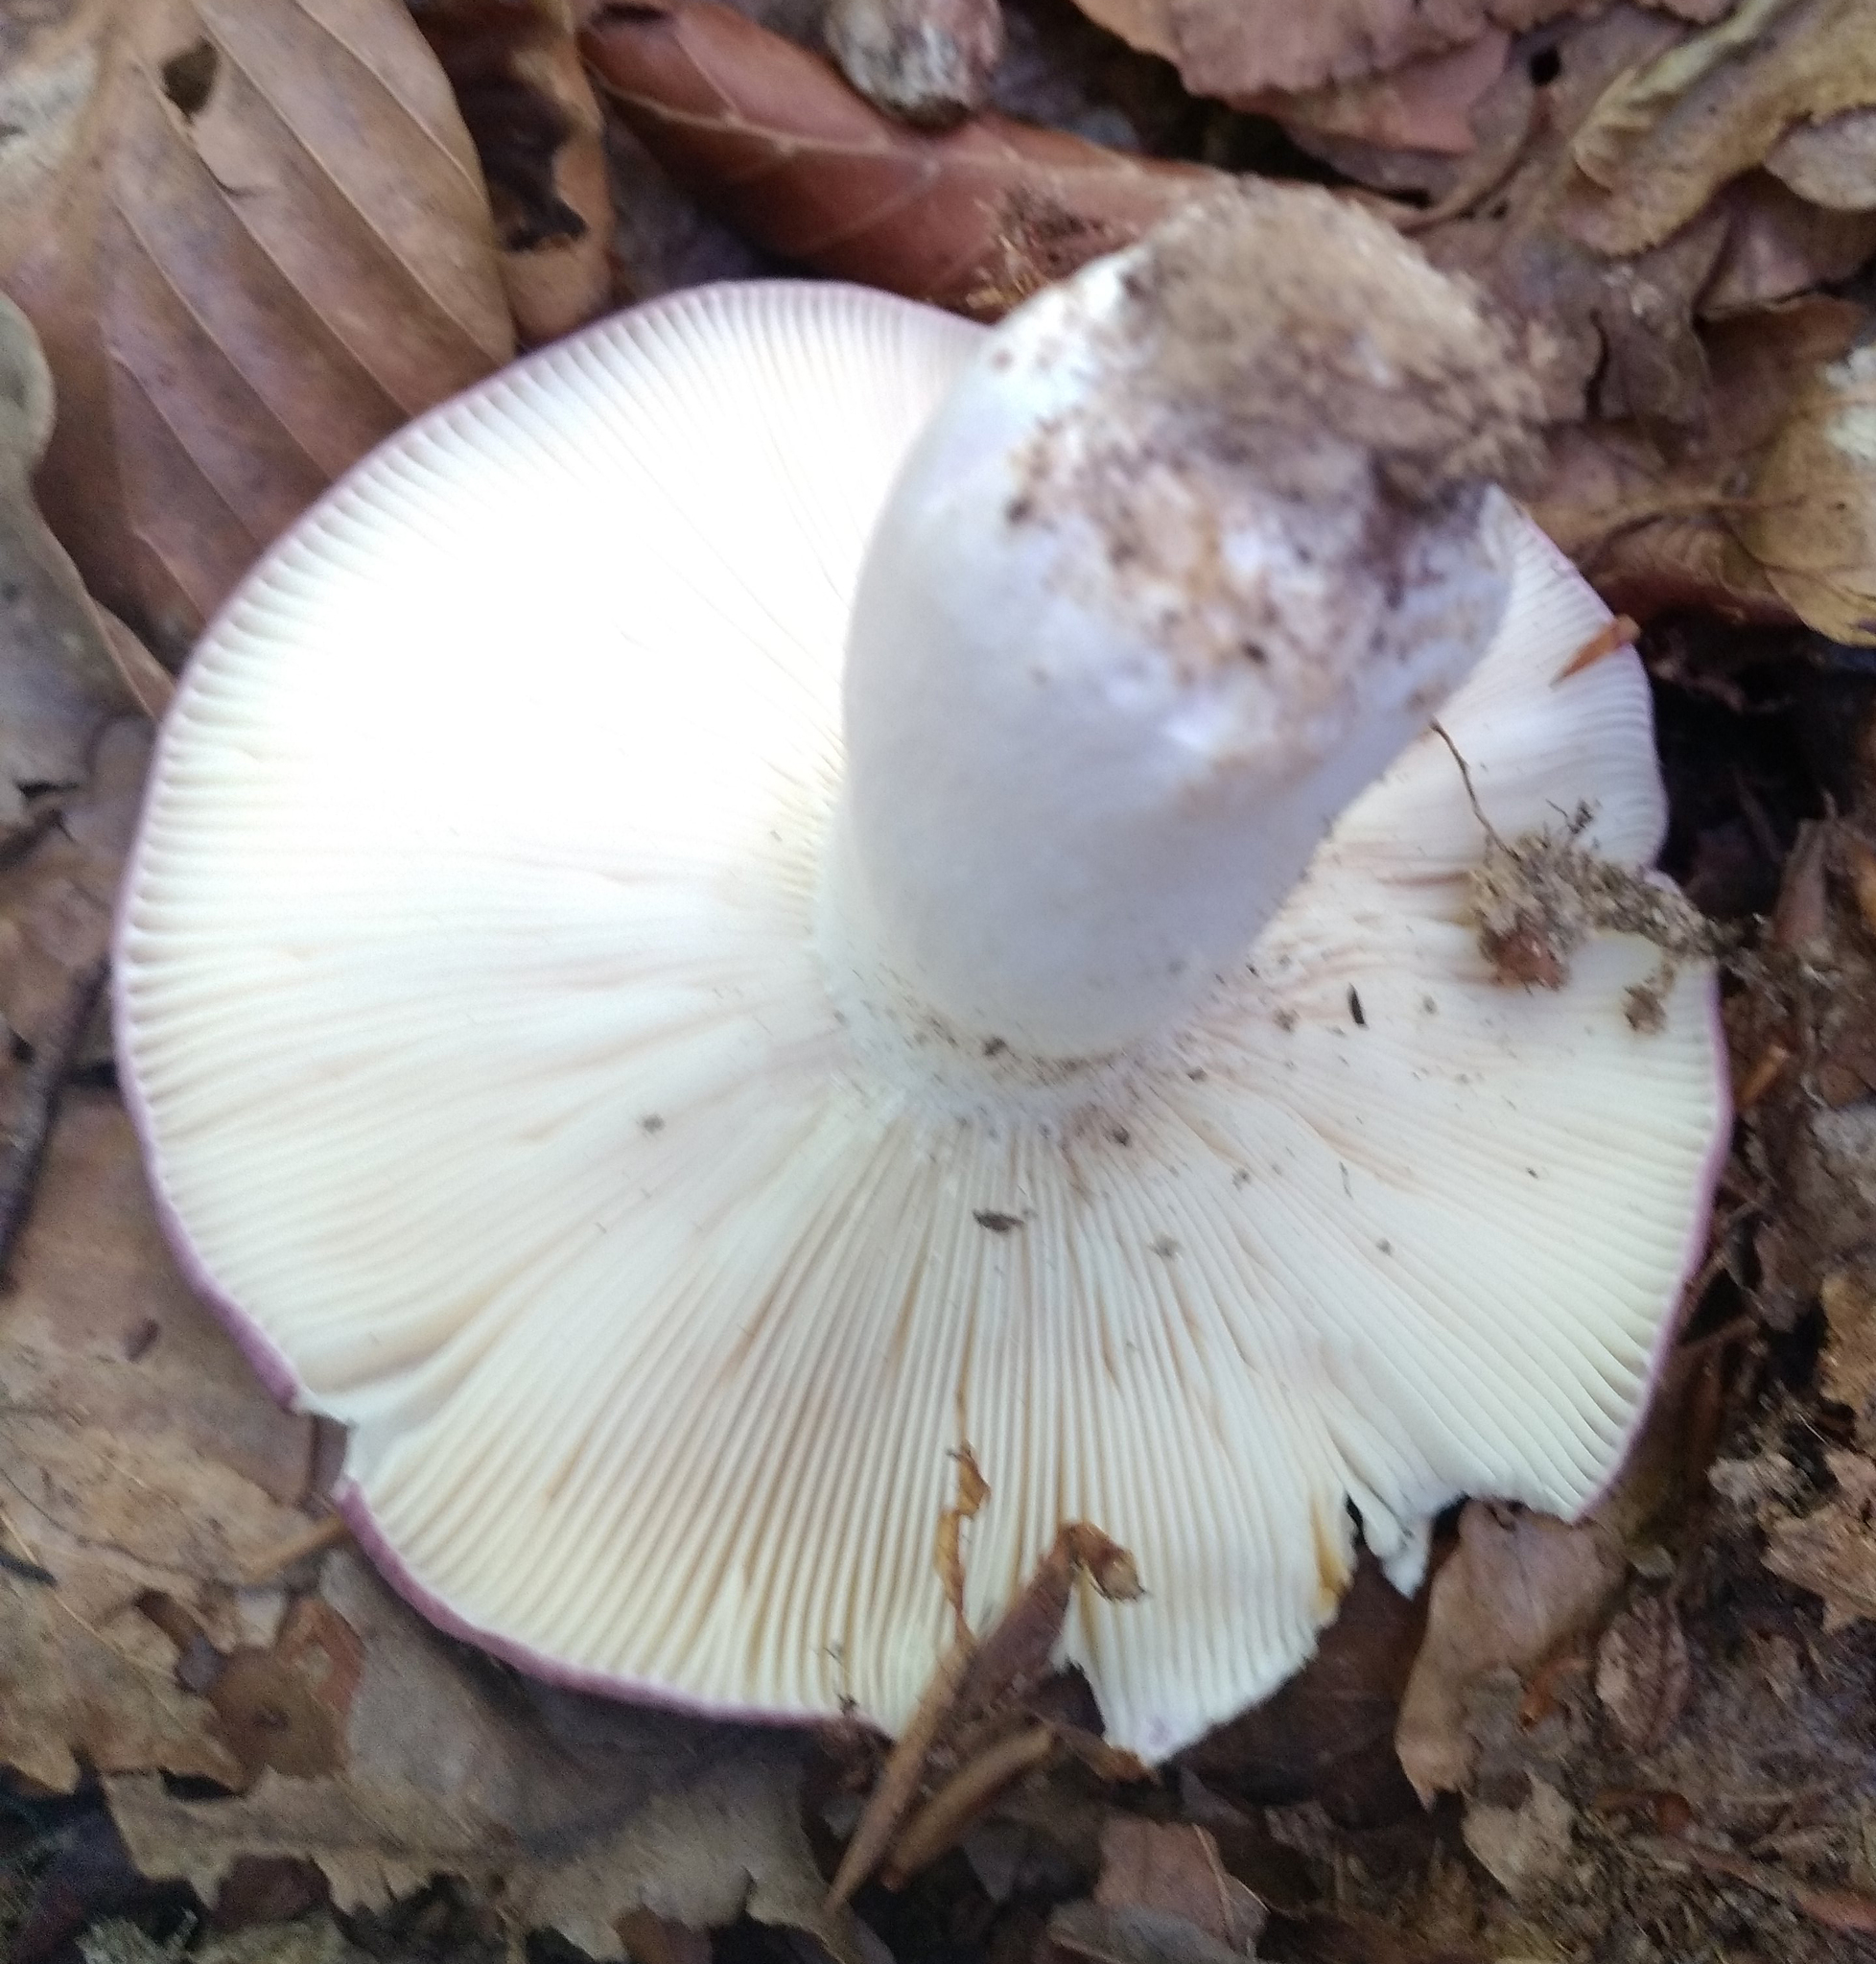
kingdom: Fungi
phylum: Basidiomycota
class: Agaricomycetes
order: Russulales
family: Russulaceae
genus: Russula
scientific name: Russula cyanoxantha
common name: Charcoal burner
